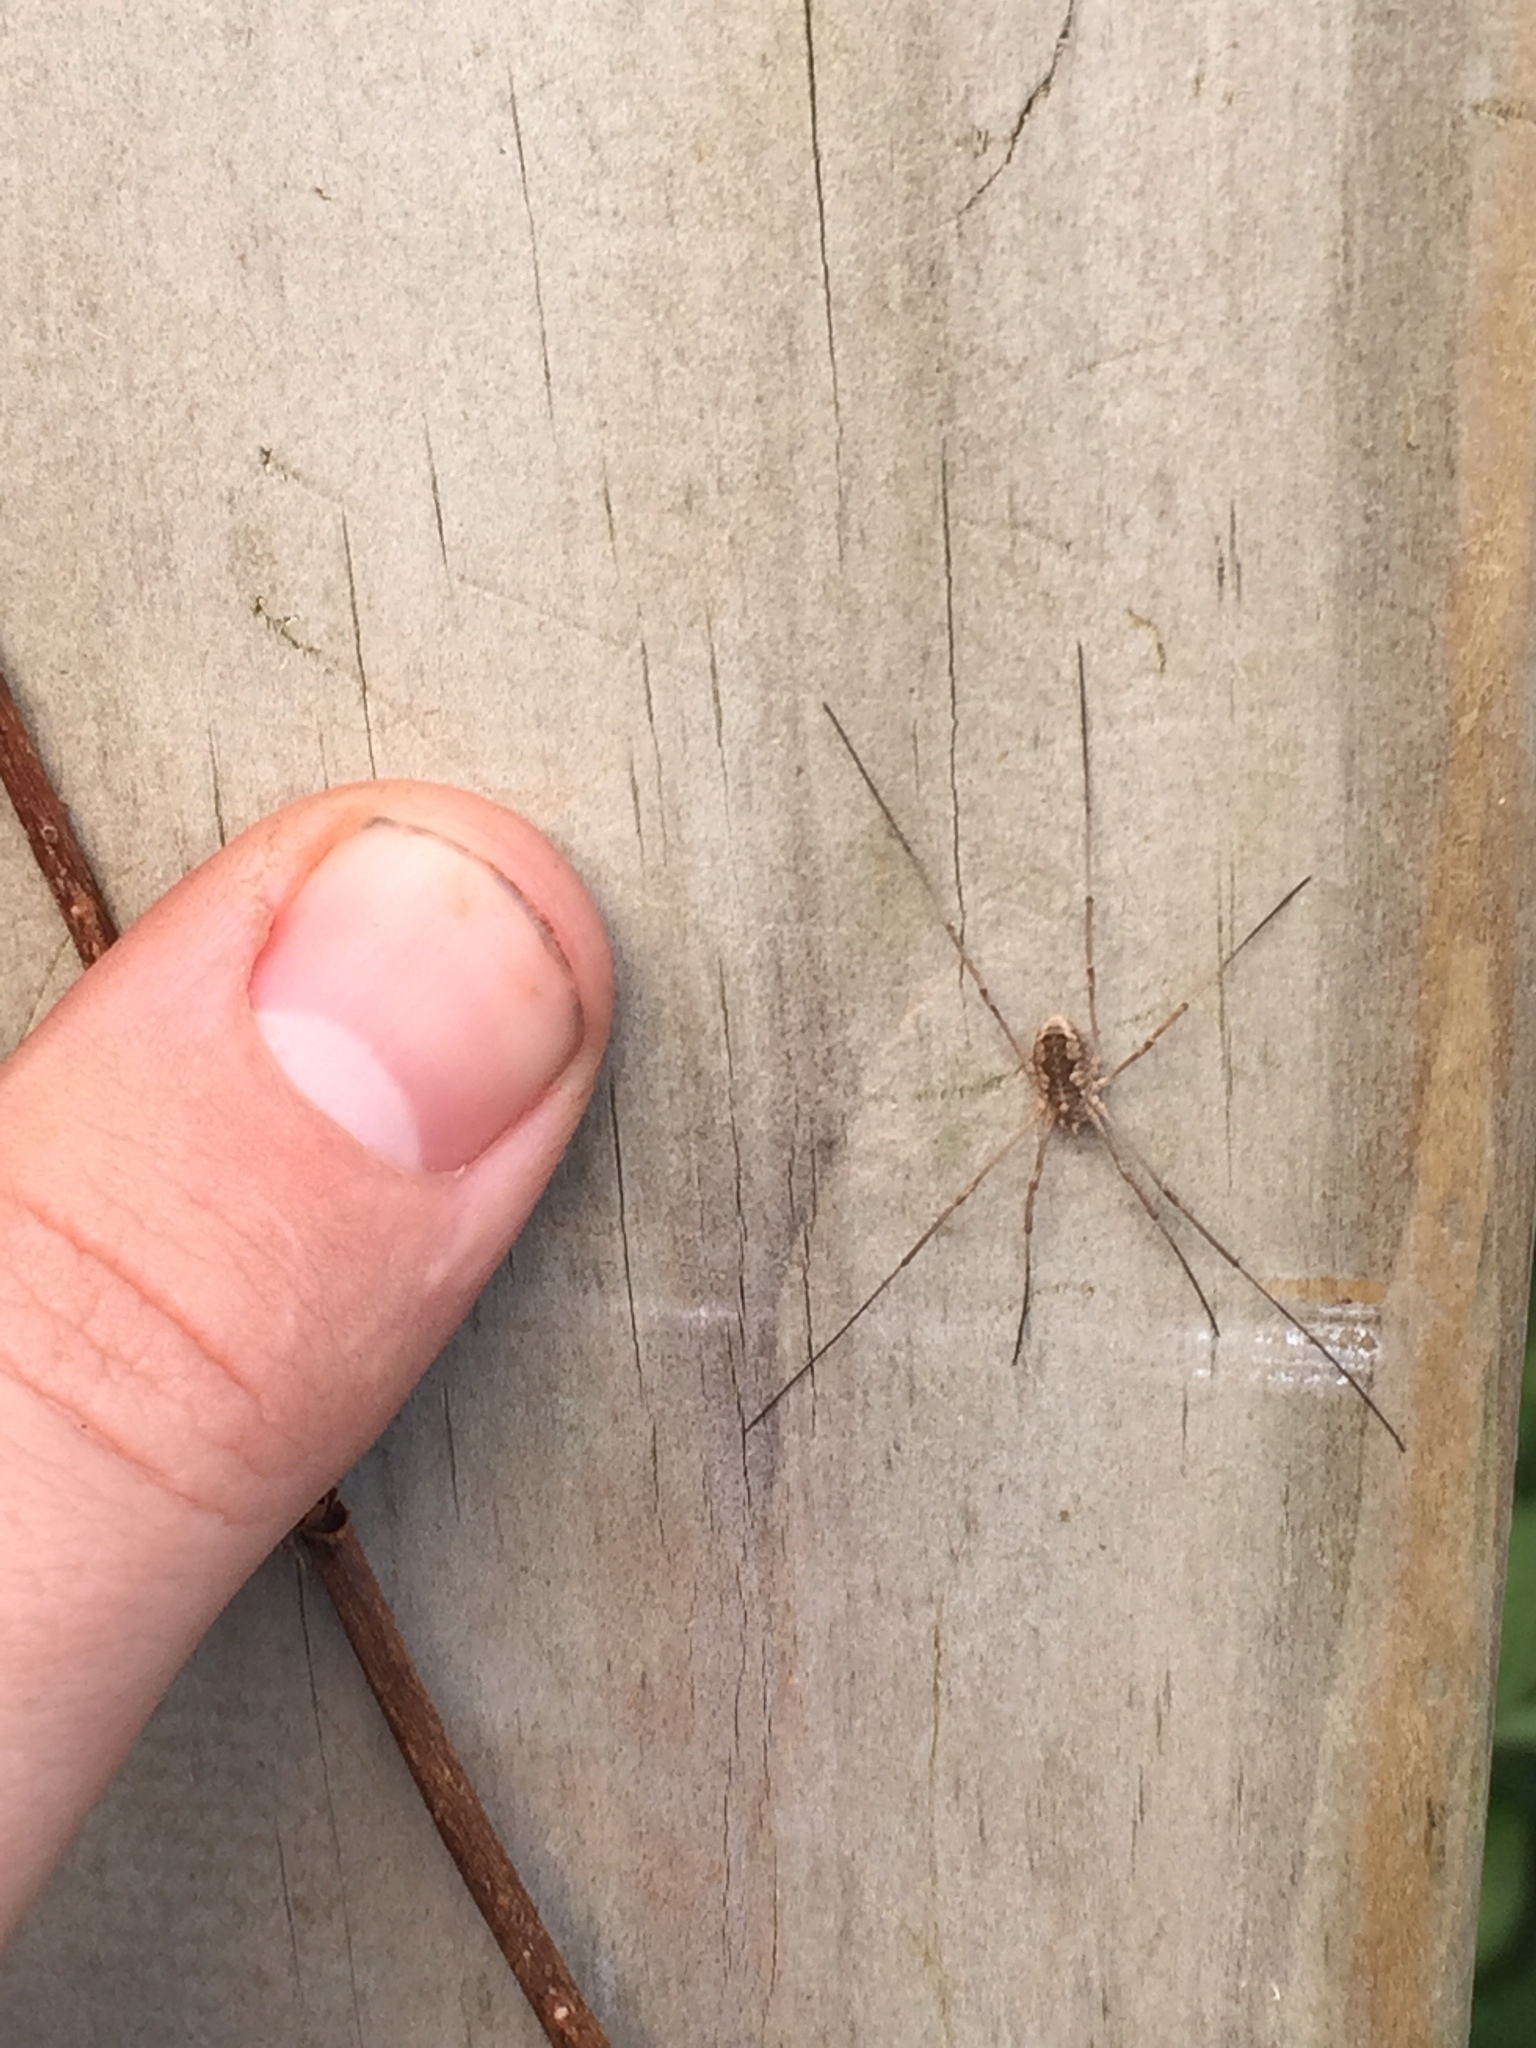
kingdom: Animalia
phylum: Arthropoda
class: Arachnida
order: Opiliones
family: Phalangiidae
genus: Phalangium
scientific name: Phalangium opilio
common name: Daddy longleg
